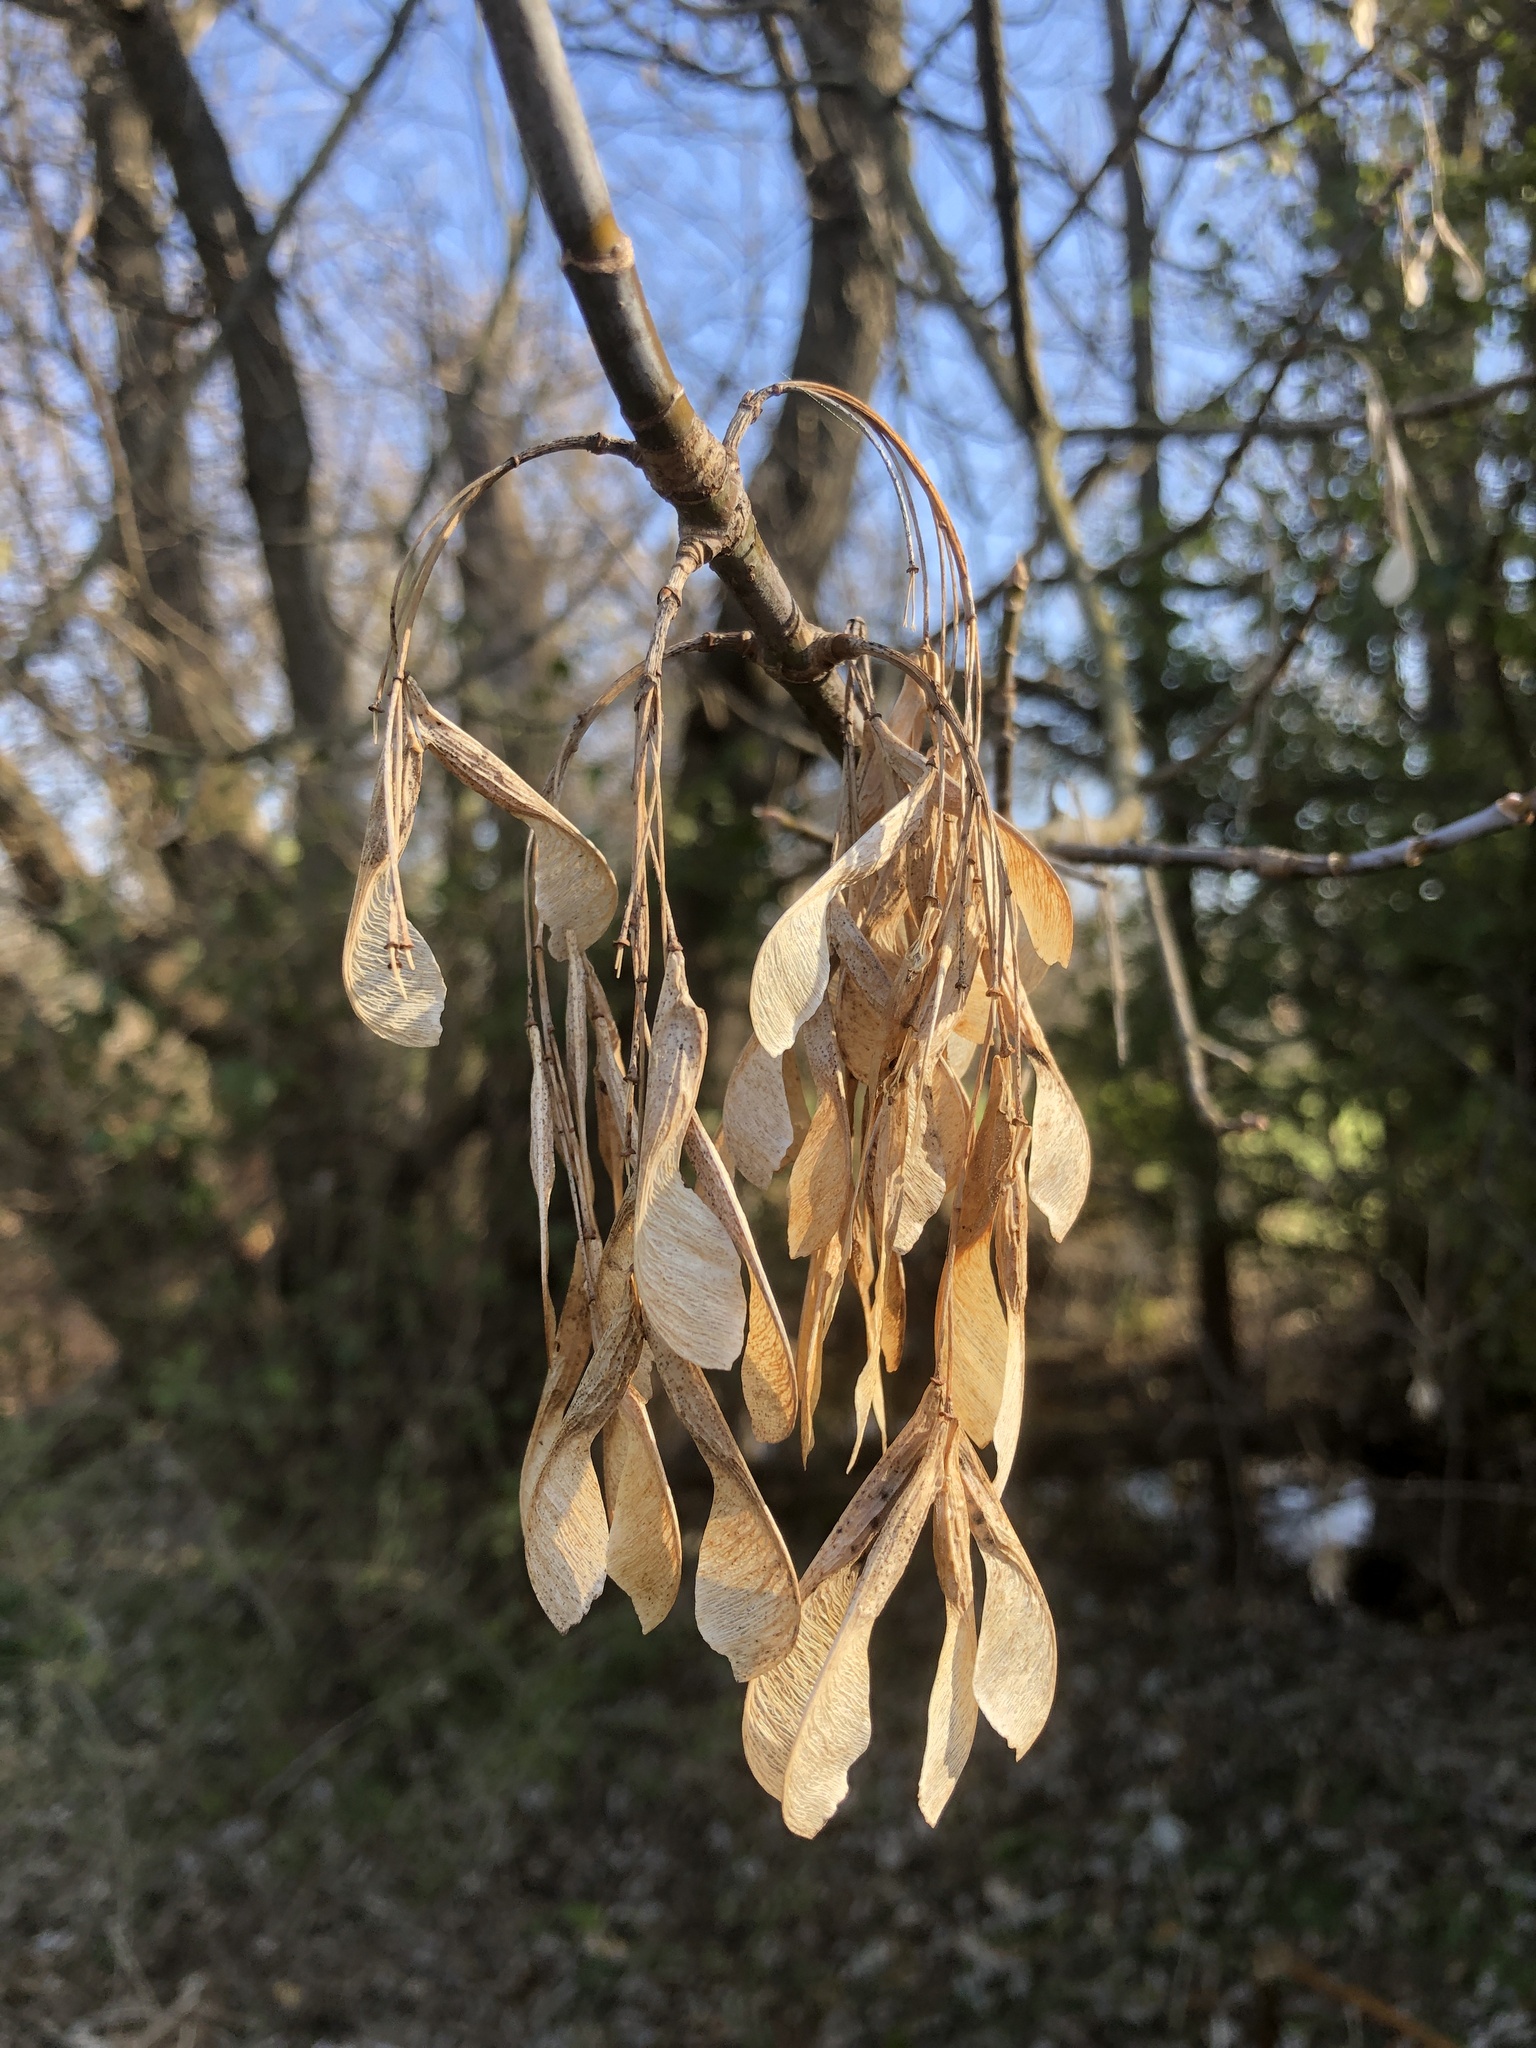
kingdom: Plantae
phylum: Tracheophyta
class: Magnoliopsida
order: Sapindales
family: Sapindaceae
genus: Acer
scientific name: Acer negundo
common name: Ashleaf maple
